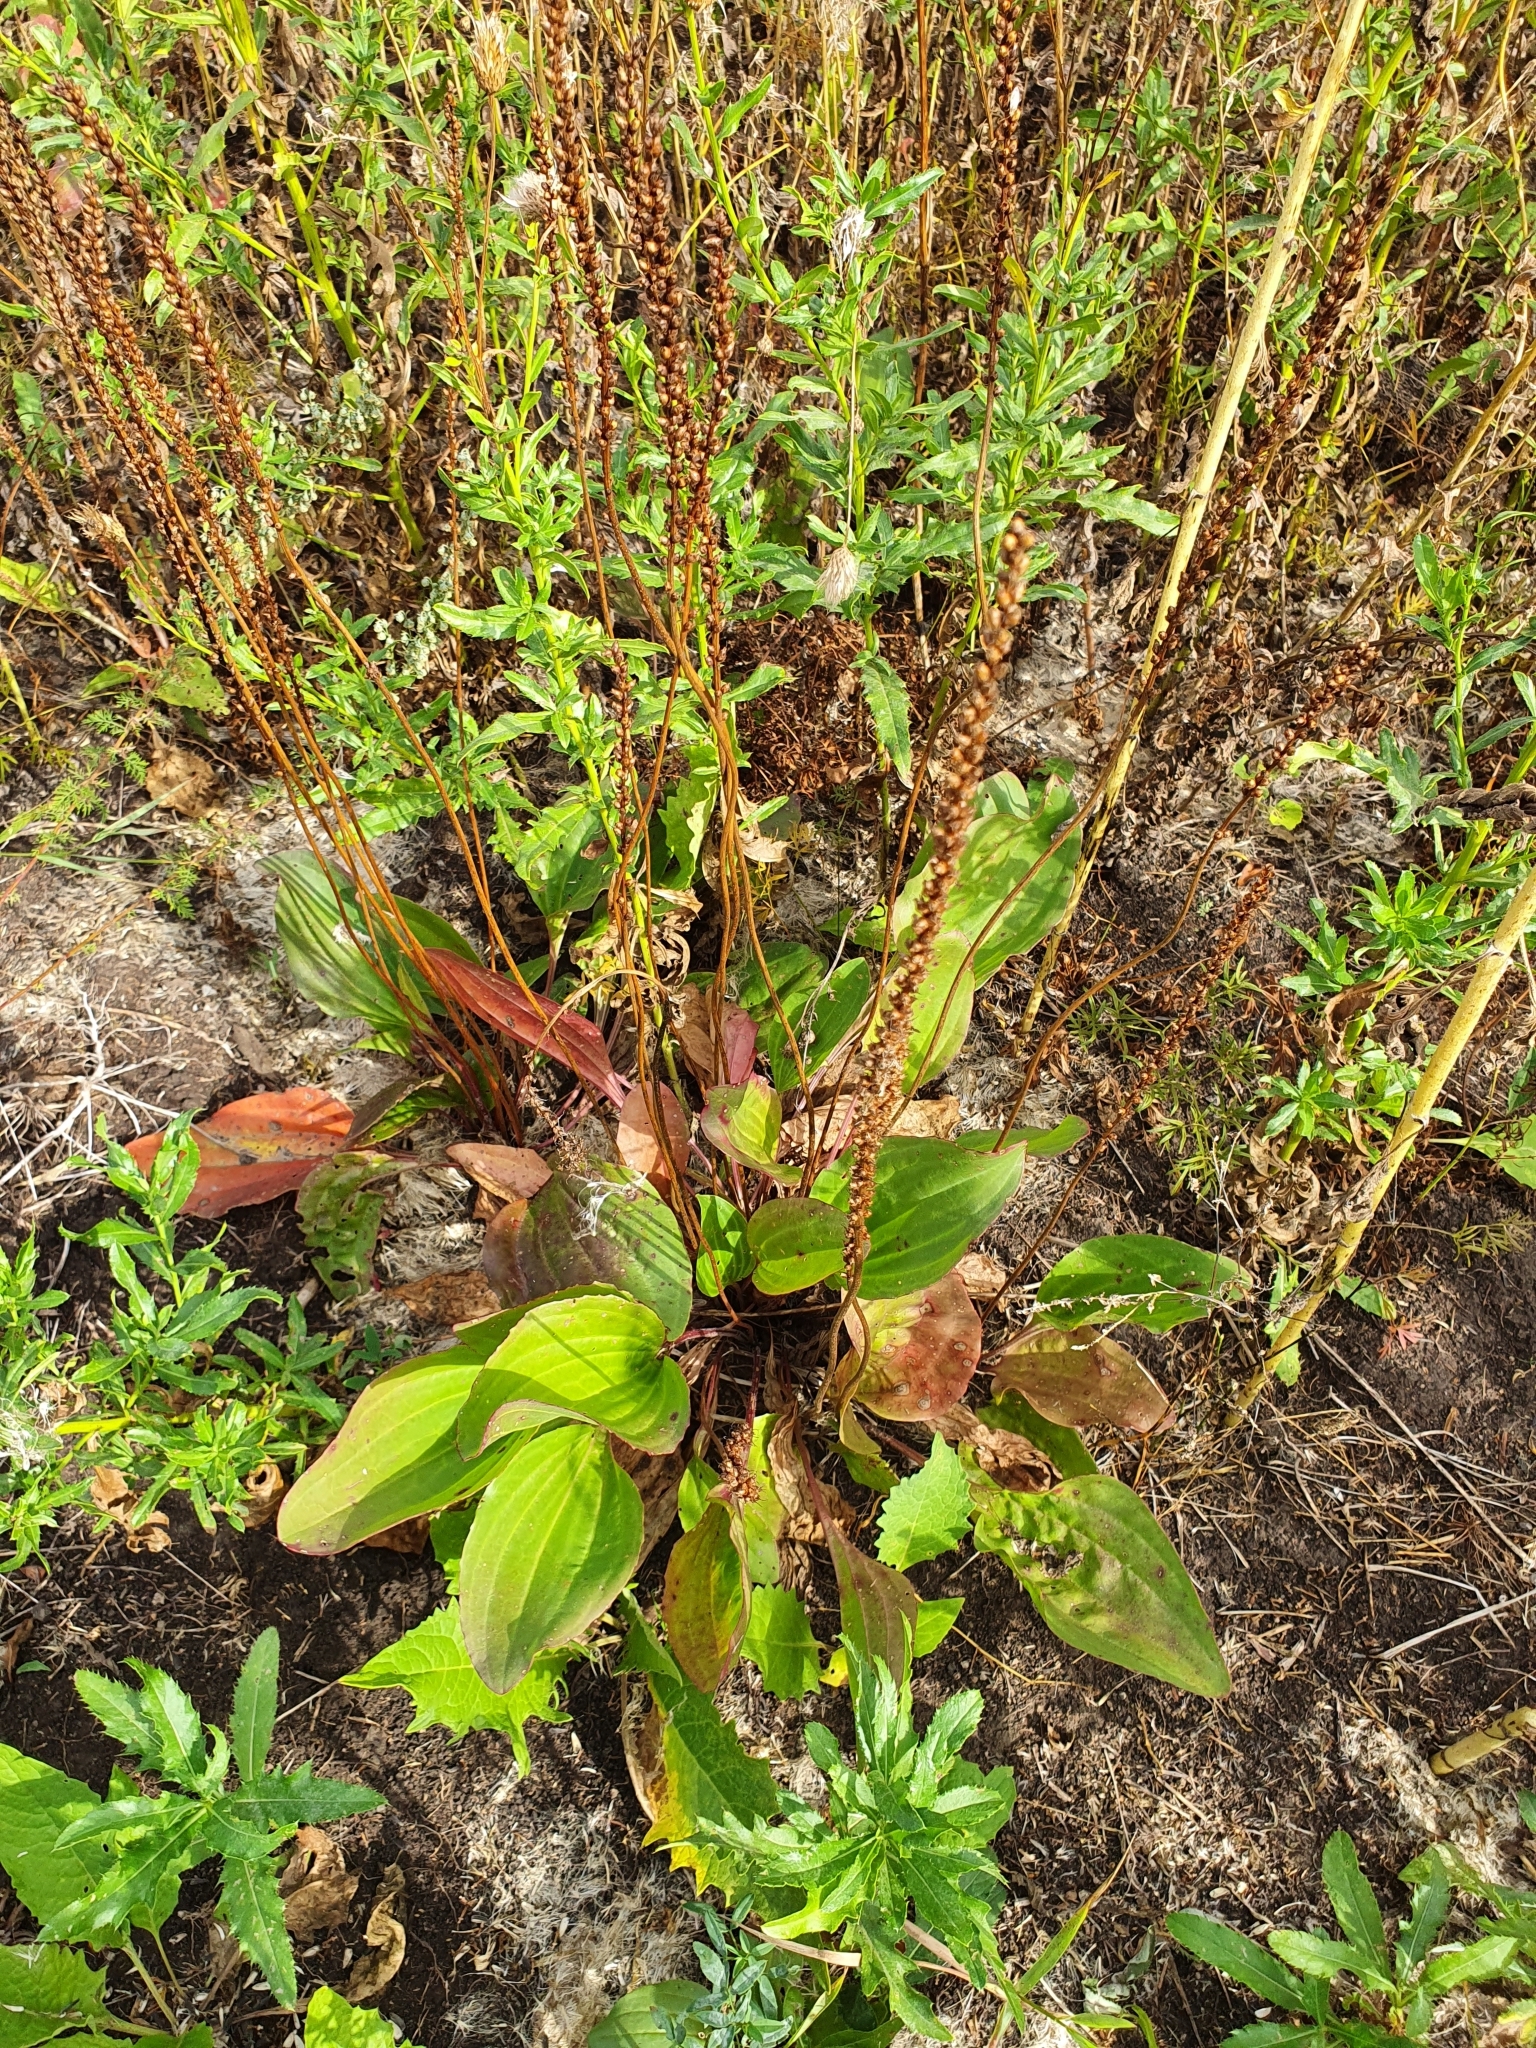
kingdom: Plantae
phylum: Tracheophyta
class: Magnoliopsida
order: Lamiales
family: Plantaginaceae
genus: Plantago
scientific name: Plantago cornuti
